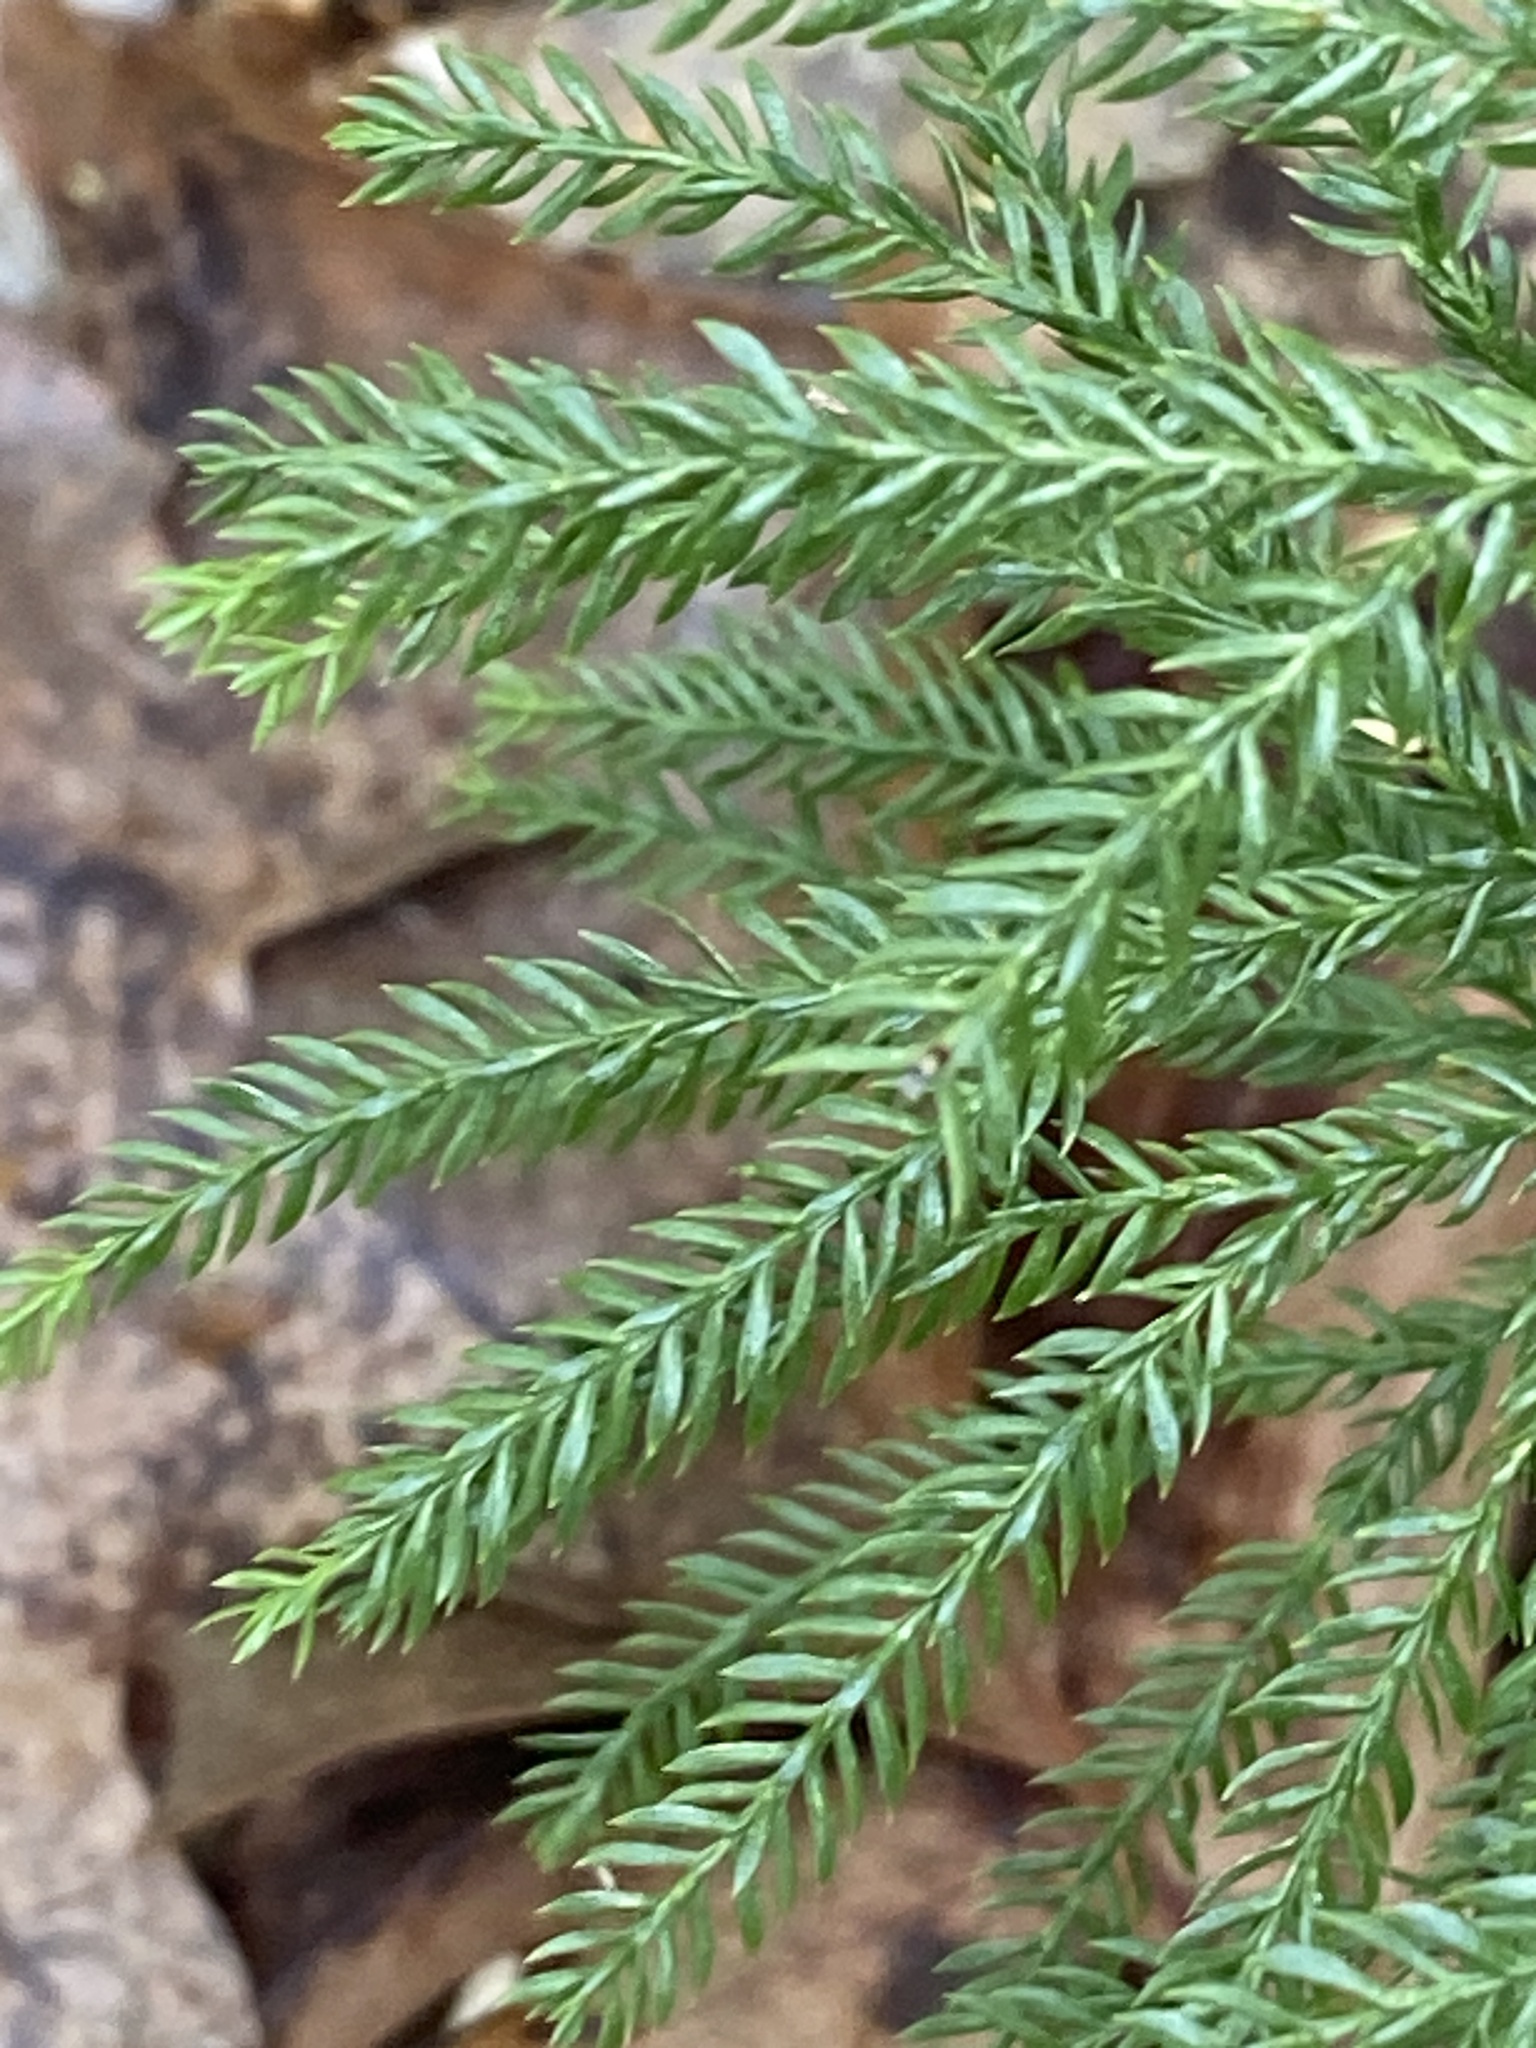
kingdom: Plantae
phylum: Tracheophyta
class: Lycopodiopsida
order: Lycopodiales
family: Lycopodiaceae
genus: Dendrolycopodium
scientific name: Dendrolycopodium obscurum
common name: Common ground-pine
